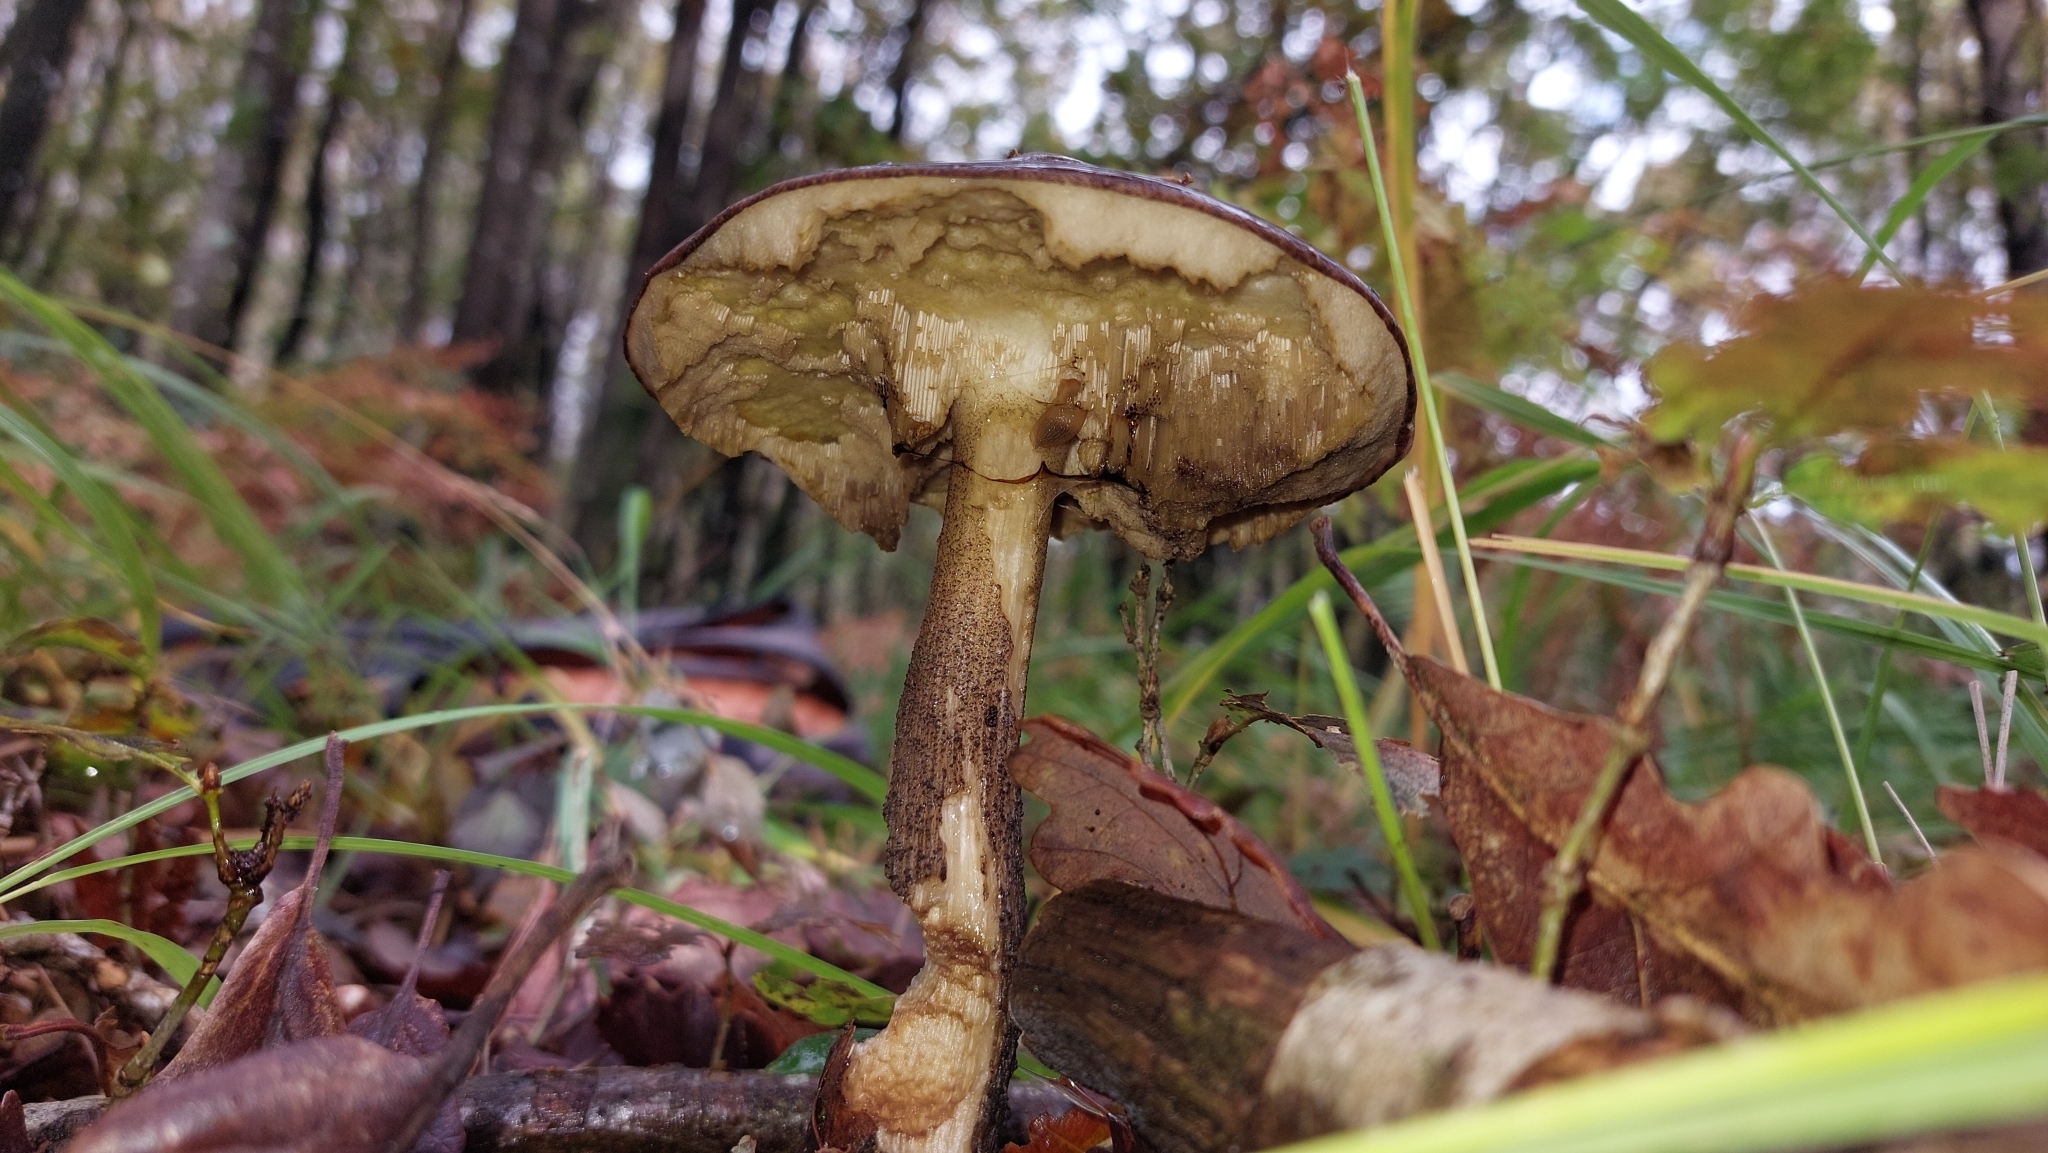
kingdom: Fungi
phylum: Basidiomycota
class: Agaricomycetes
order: Boletales
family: Boletaceae
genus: Leccinum
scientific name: Leccinum scabrum
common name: Blushing bolete
